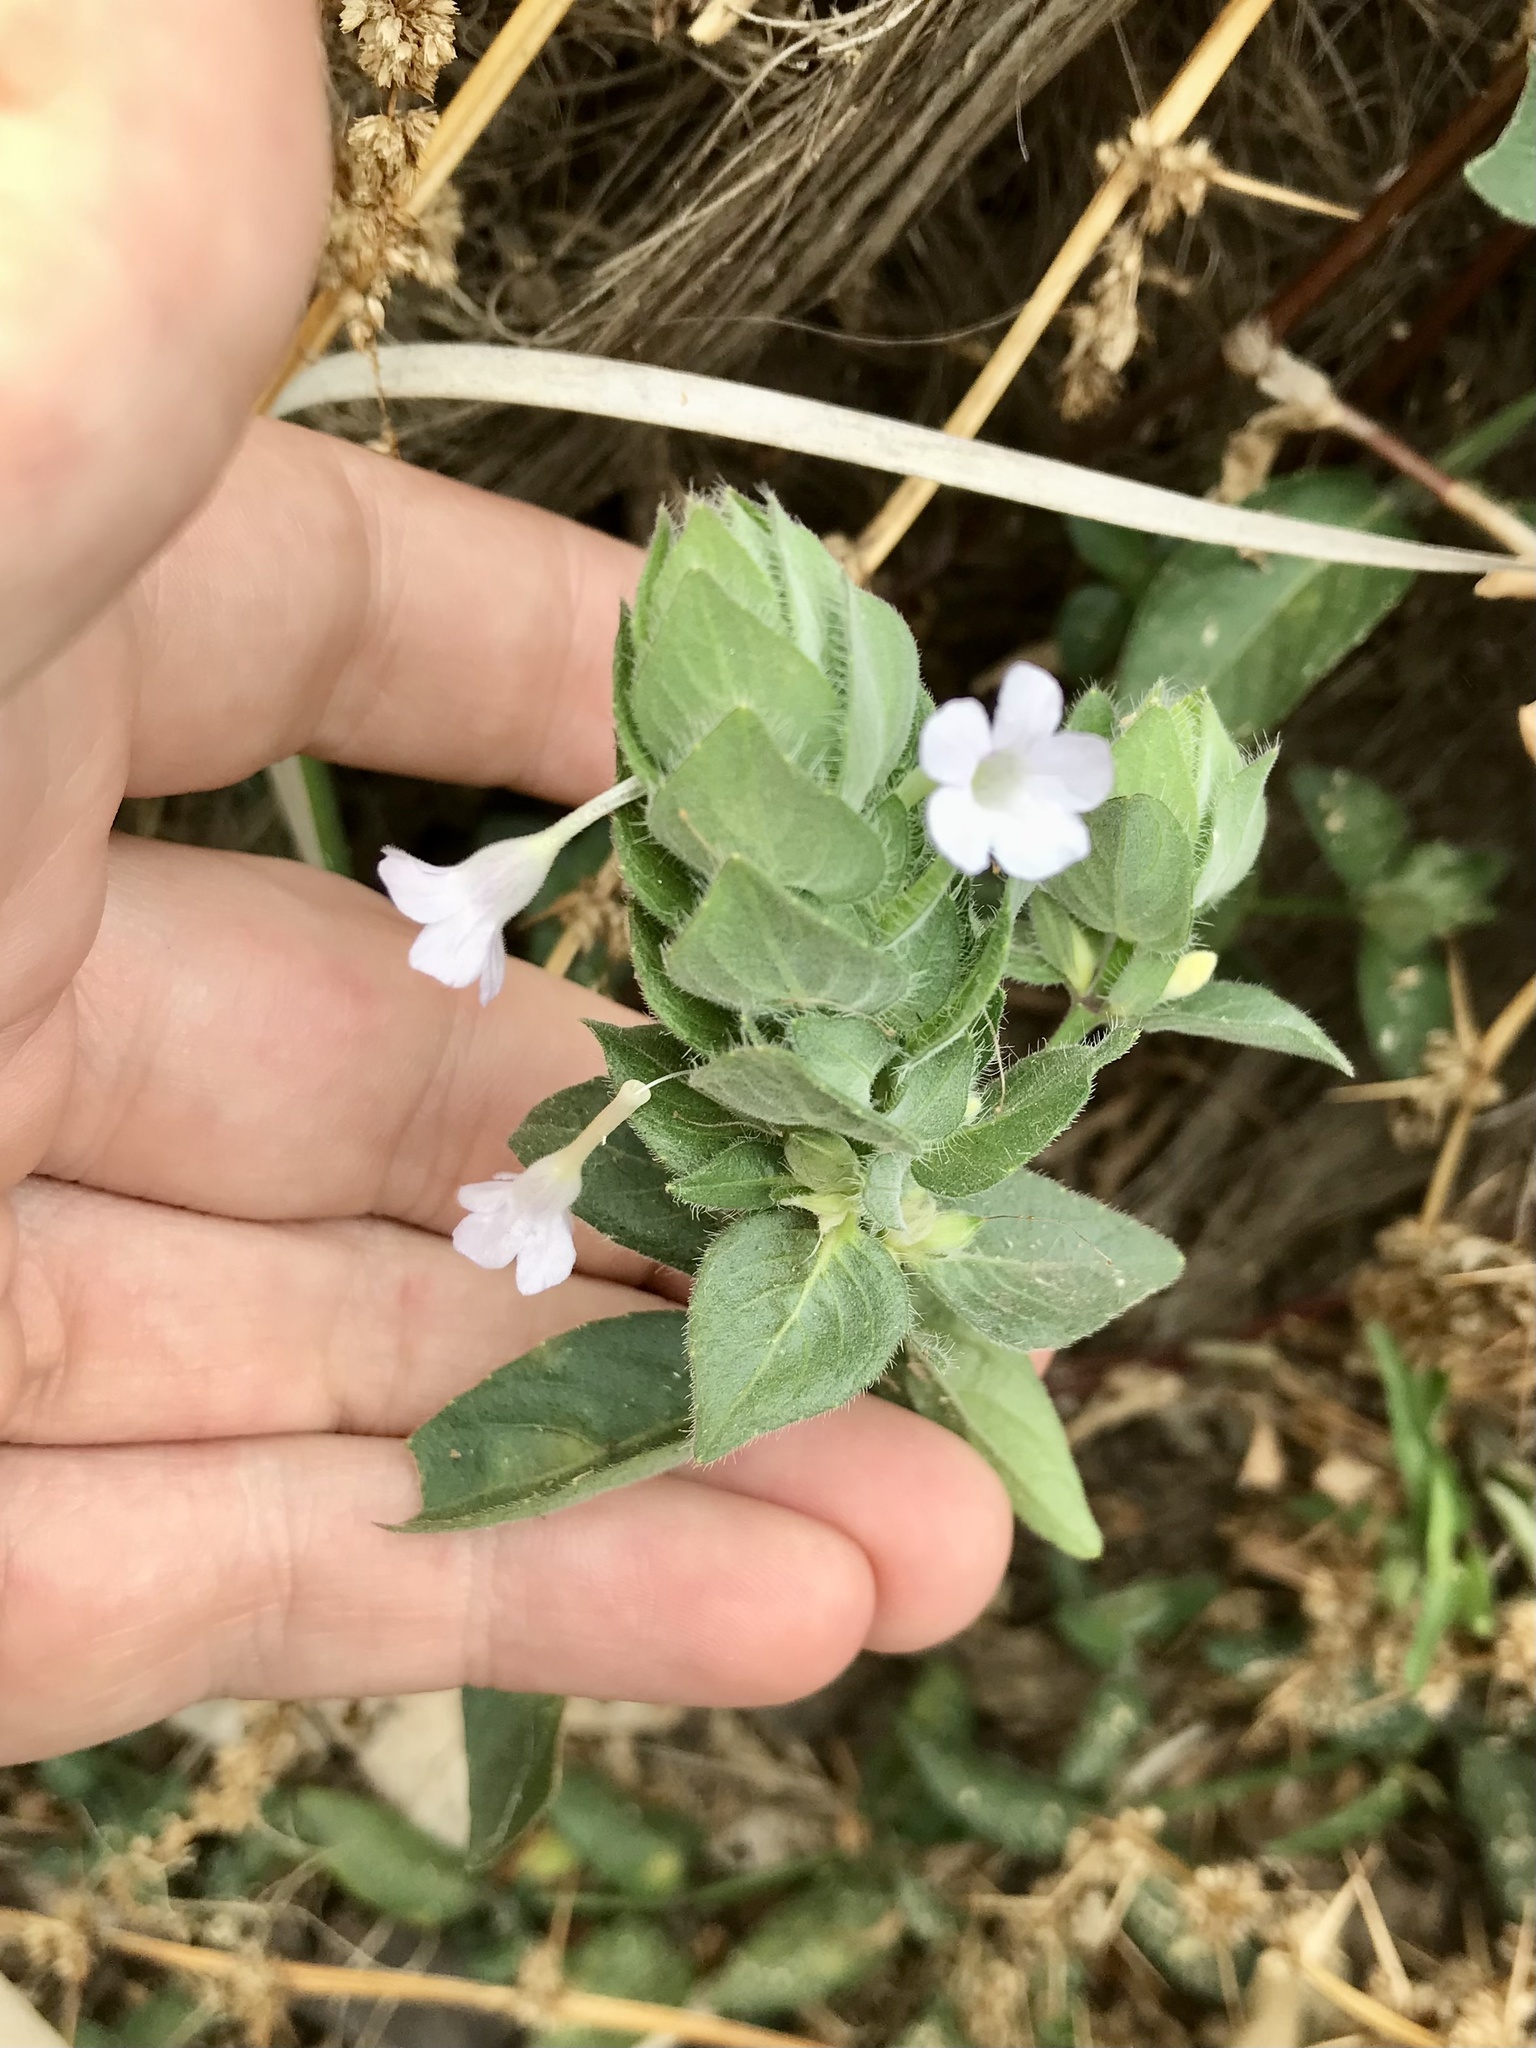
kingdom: Plantae
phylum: Tracheophyta
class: Magnoliopsida
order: Lamiales
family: Acanthaceae
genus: Ruellia
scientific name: Ruellia blechum
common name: Browne's blechum
